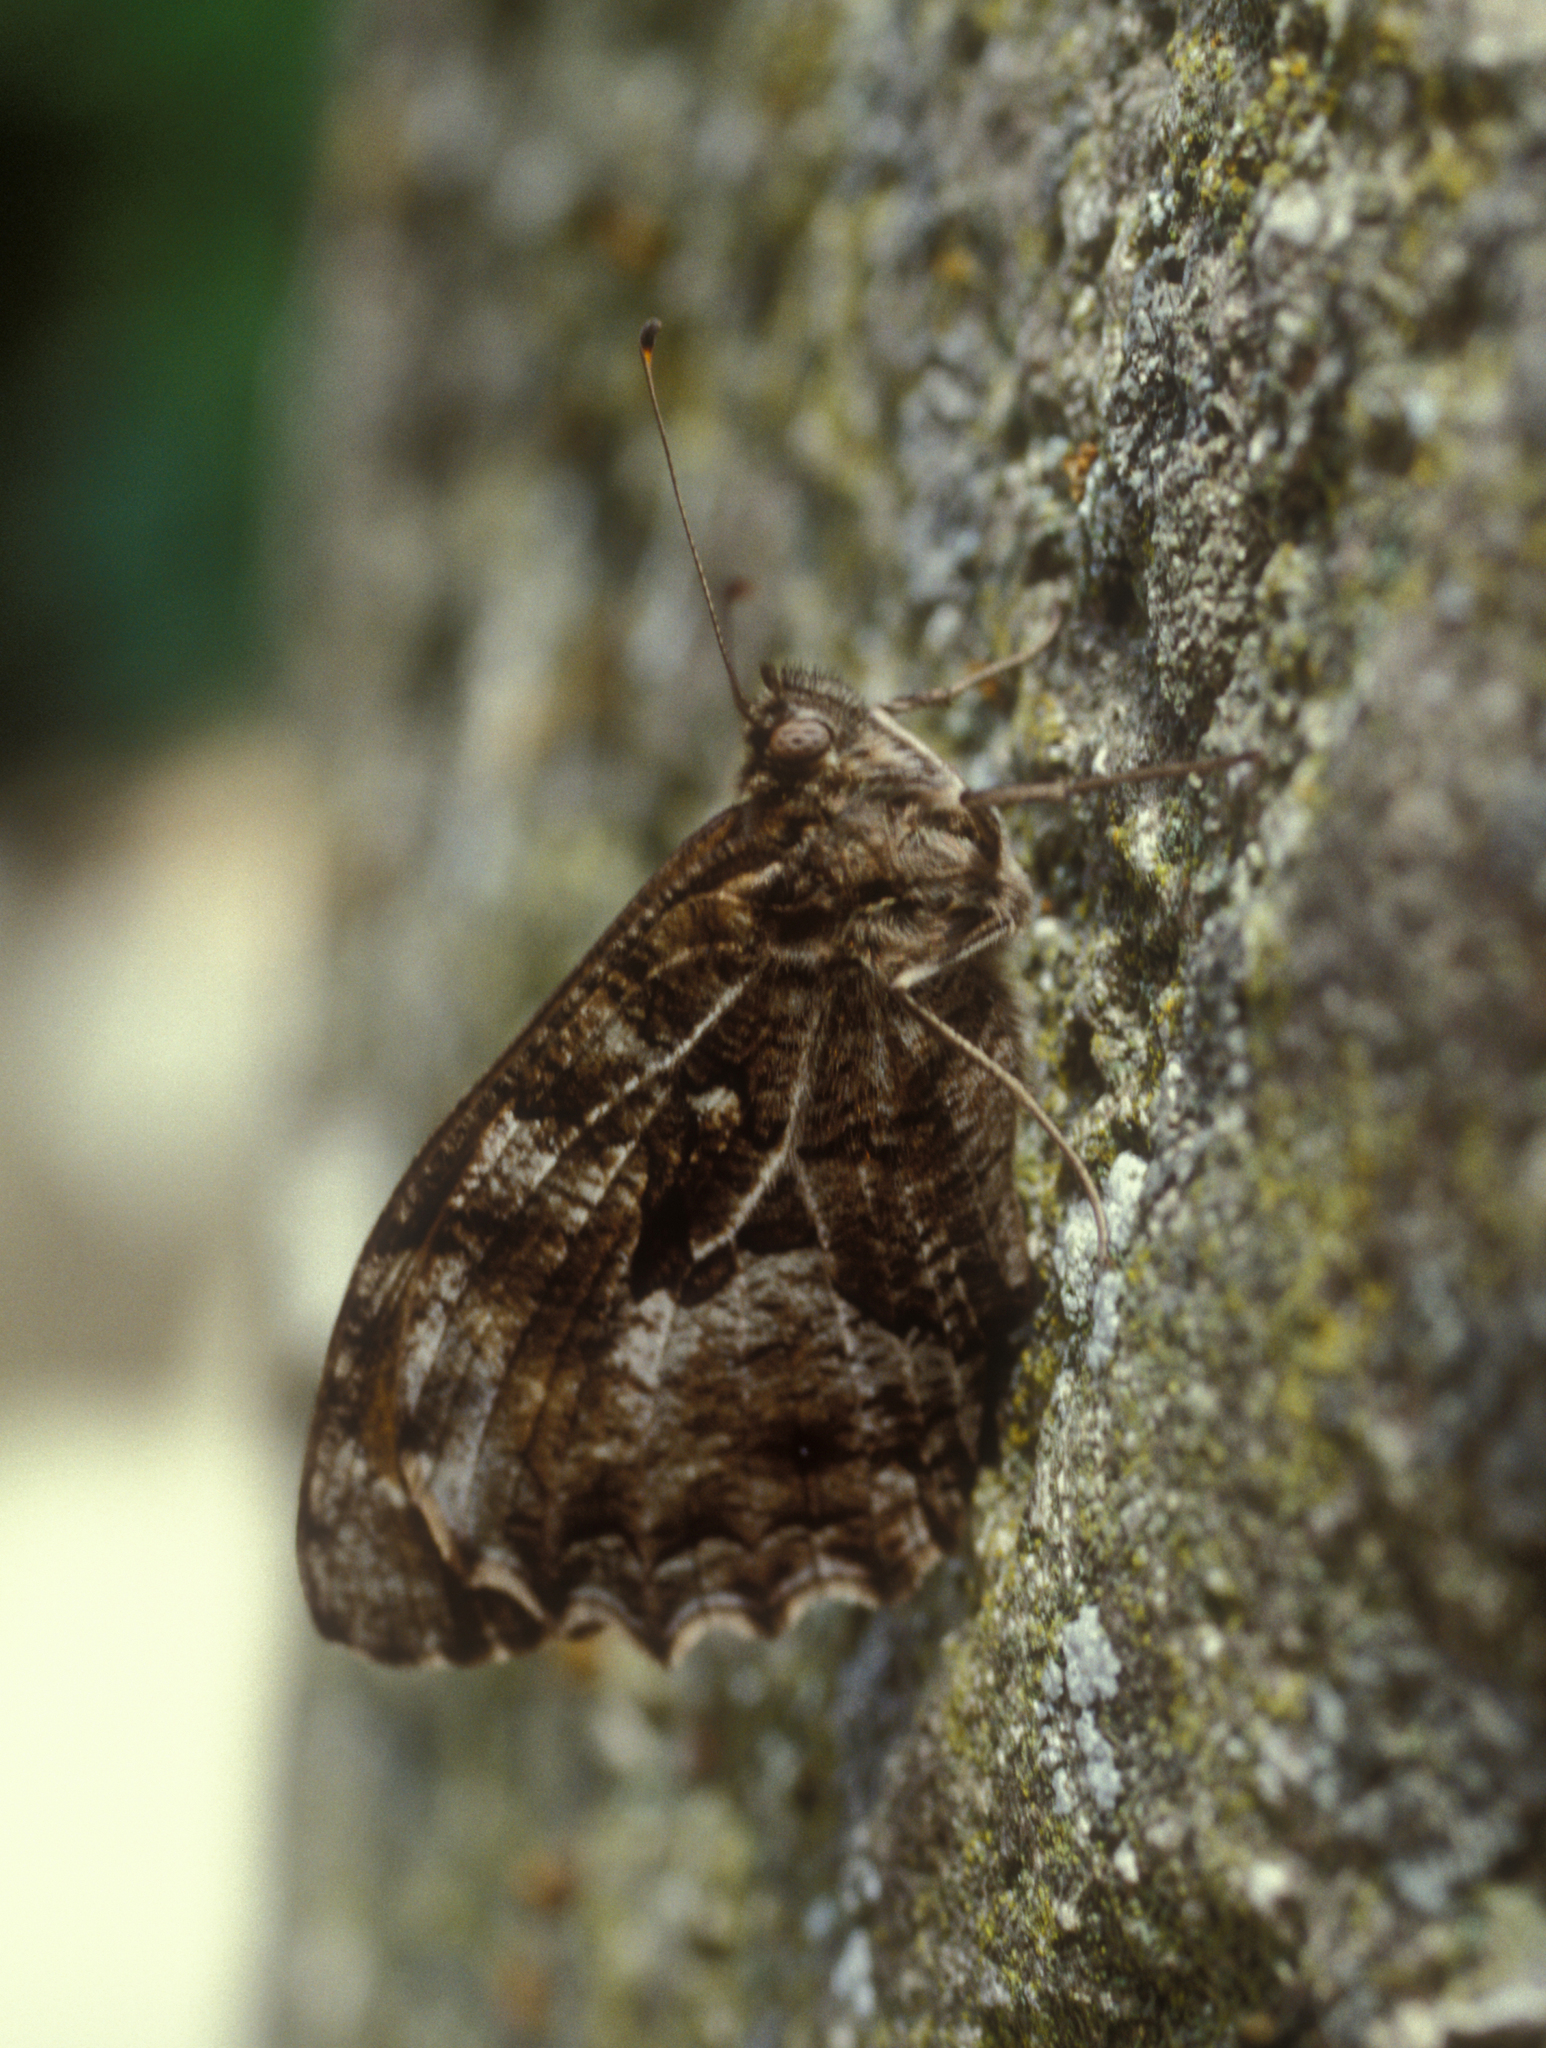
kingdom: Animalia
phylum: Arthropoda
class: Insecta
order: Lepidoptera
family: Nymphalidae
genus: Hipparchia
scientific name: Hipparchia semele
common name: Grayling
